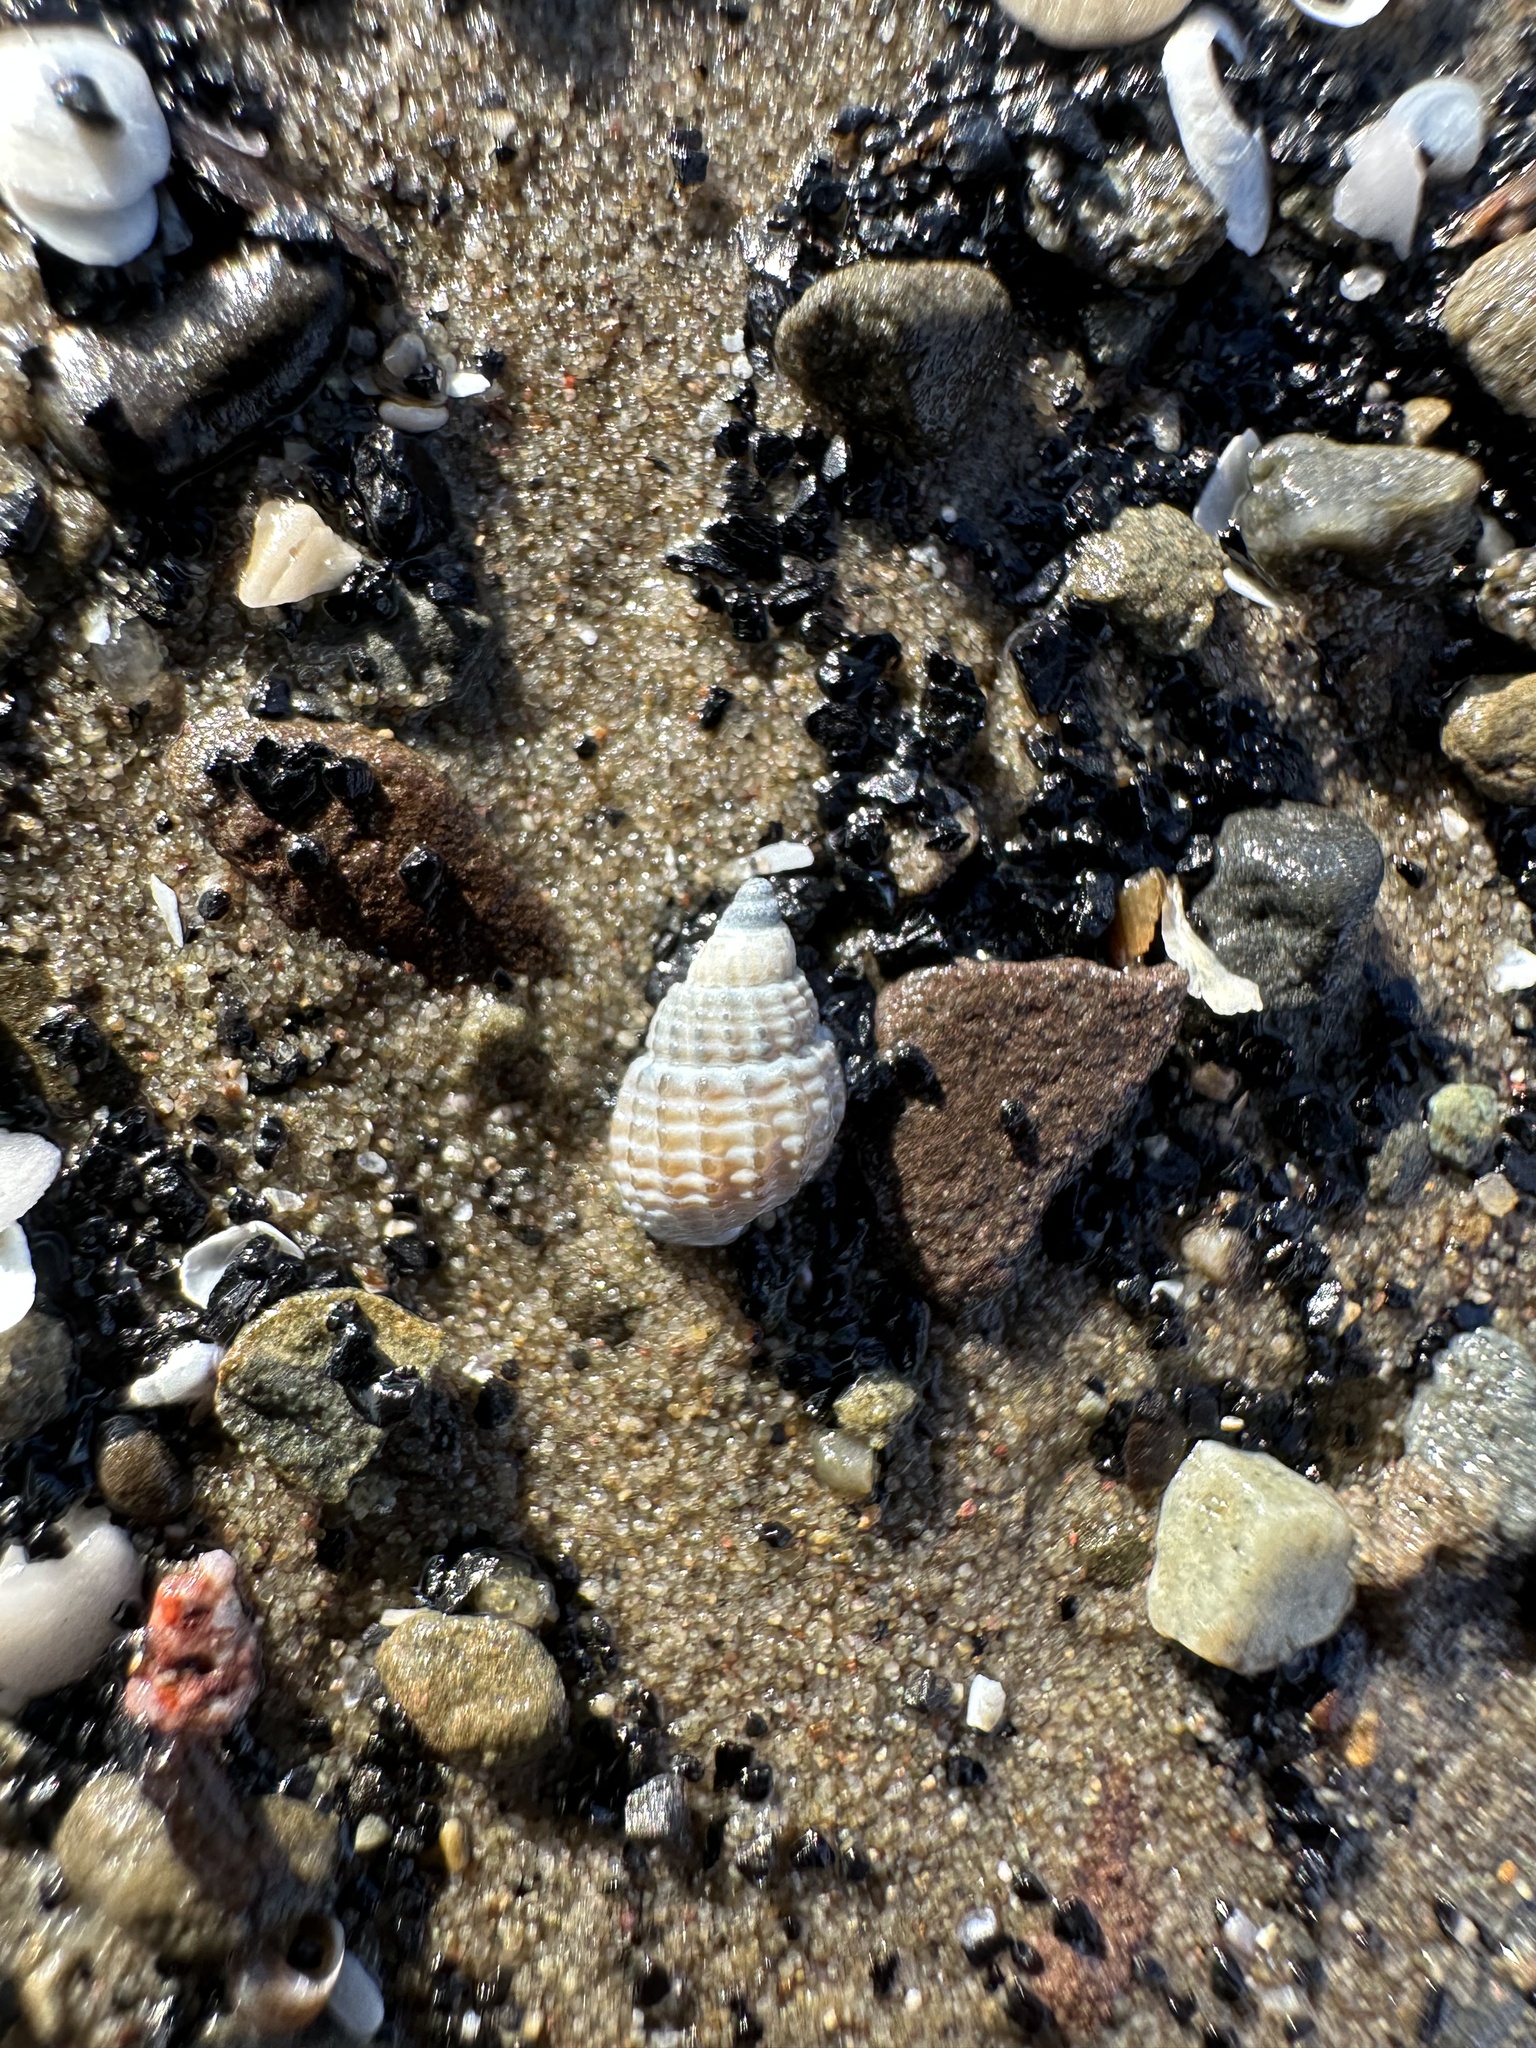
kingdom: Animalia
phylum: Mollusca
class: Gastropoda
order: Neogastropoda
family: Nassariidae
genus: Ilyanassa
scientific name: Ilyanassa trivittata
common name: Three-line mudsnail
